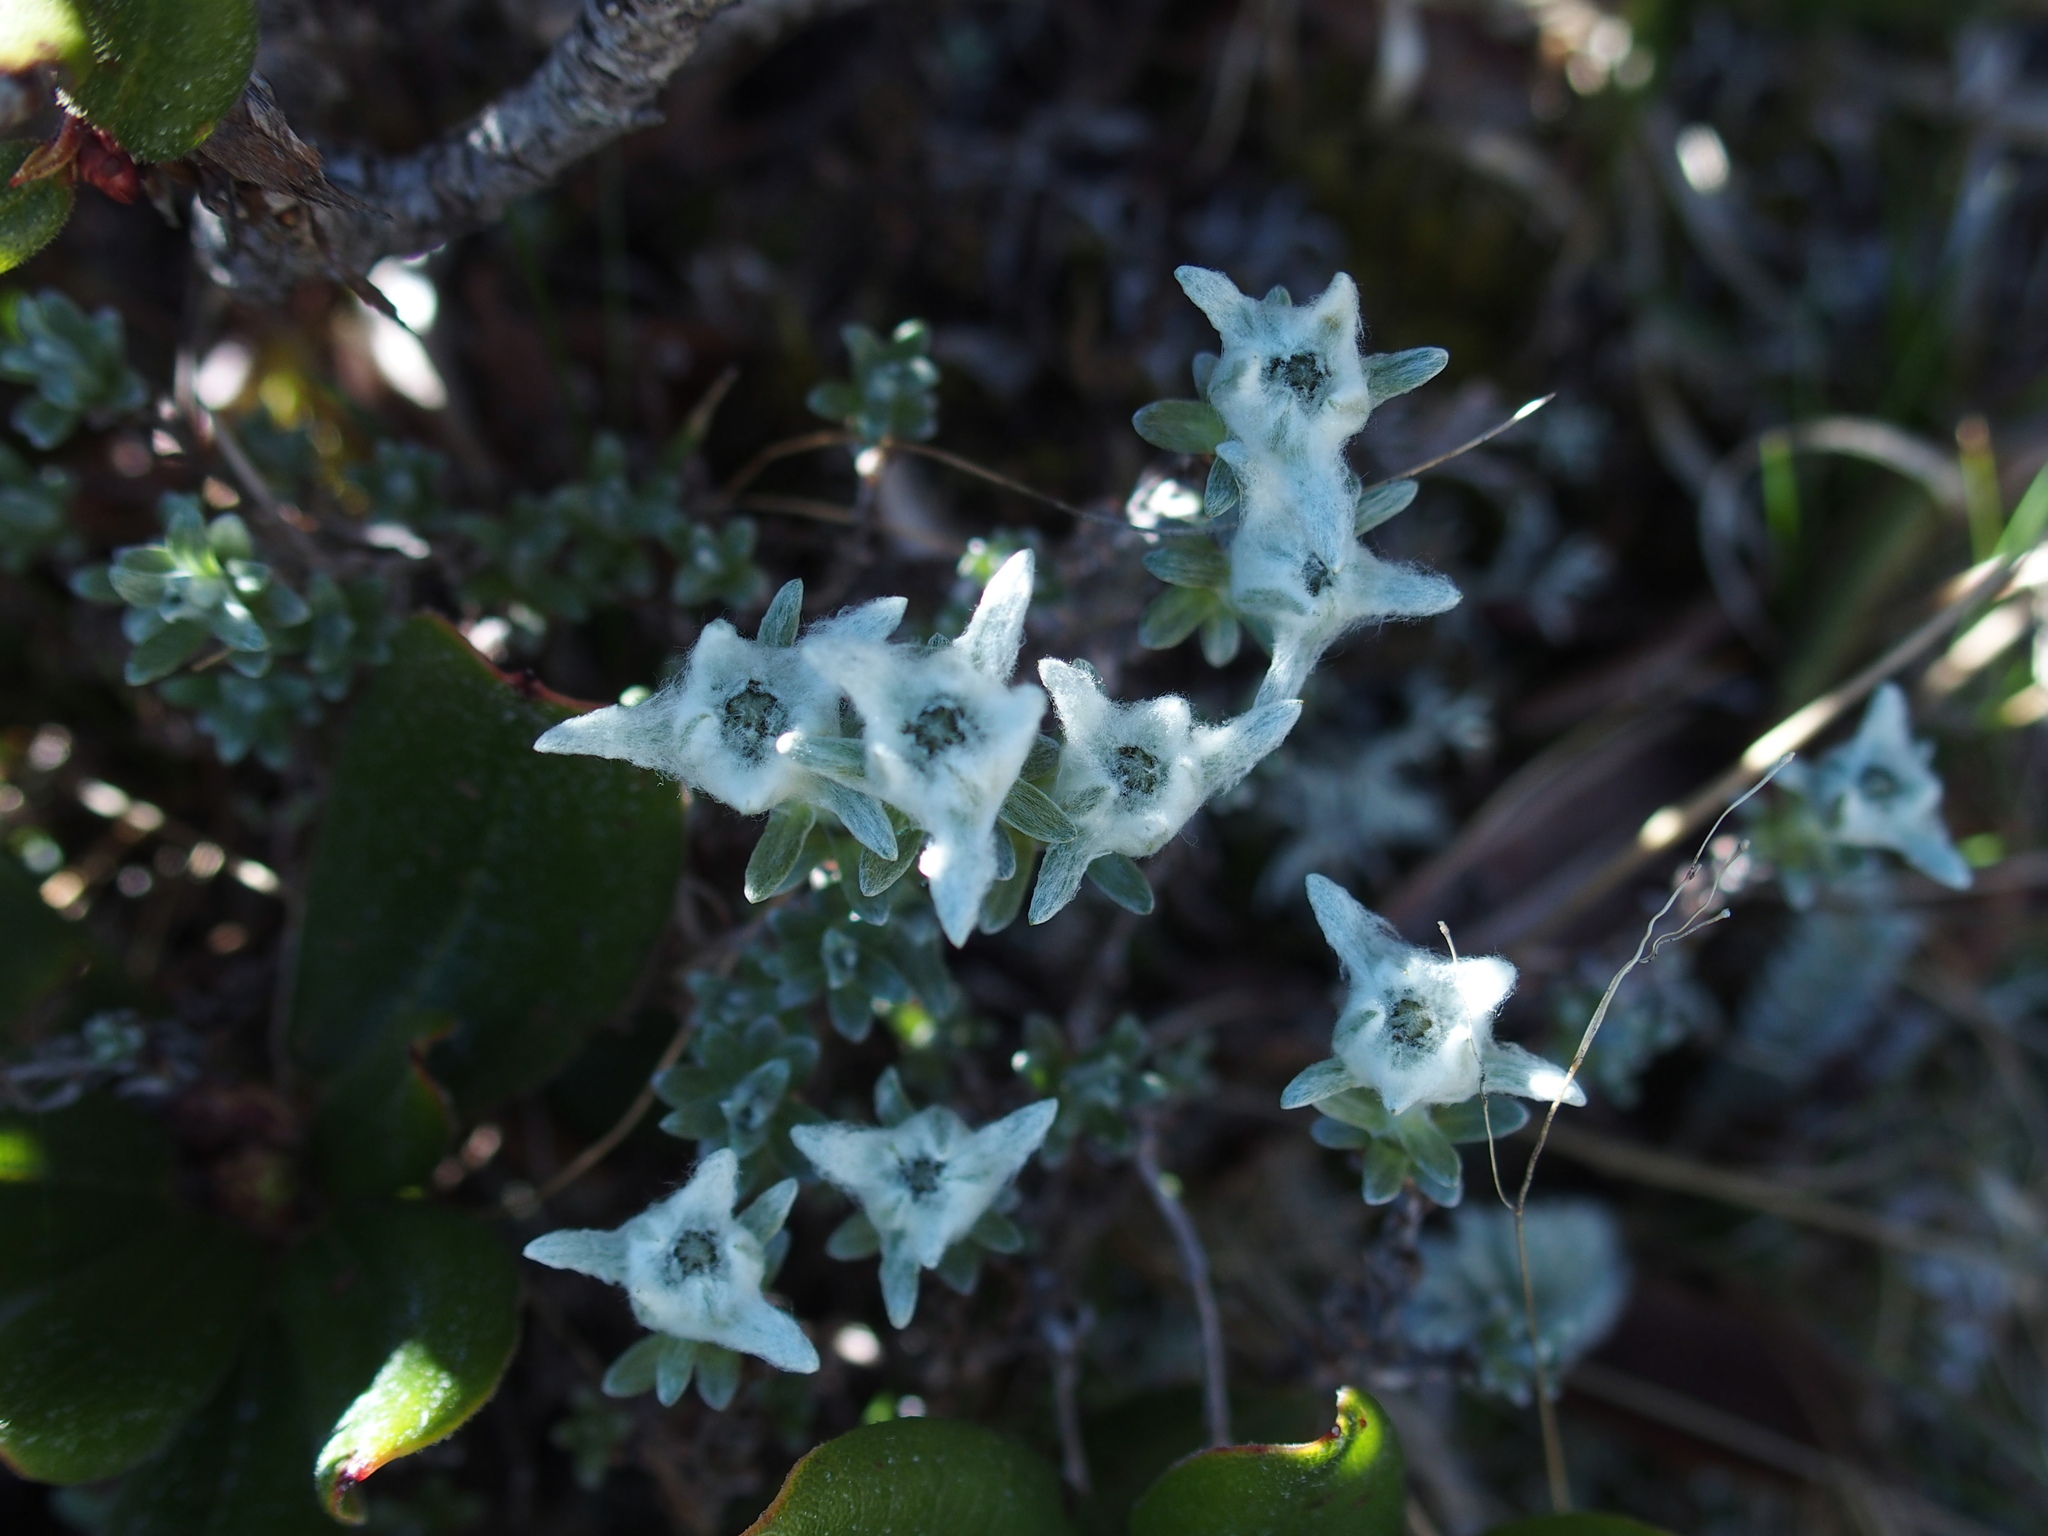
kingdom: Plantae
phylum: Tracheophyta
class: Magnoliopsida
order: Asterales
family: Asteraceae
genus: Leontopodium
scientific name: Leontopodium microphyllum
